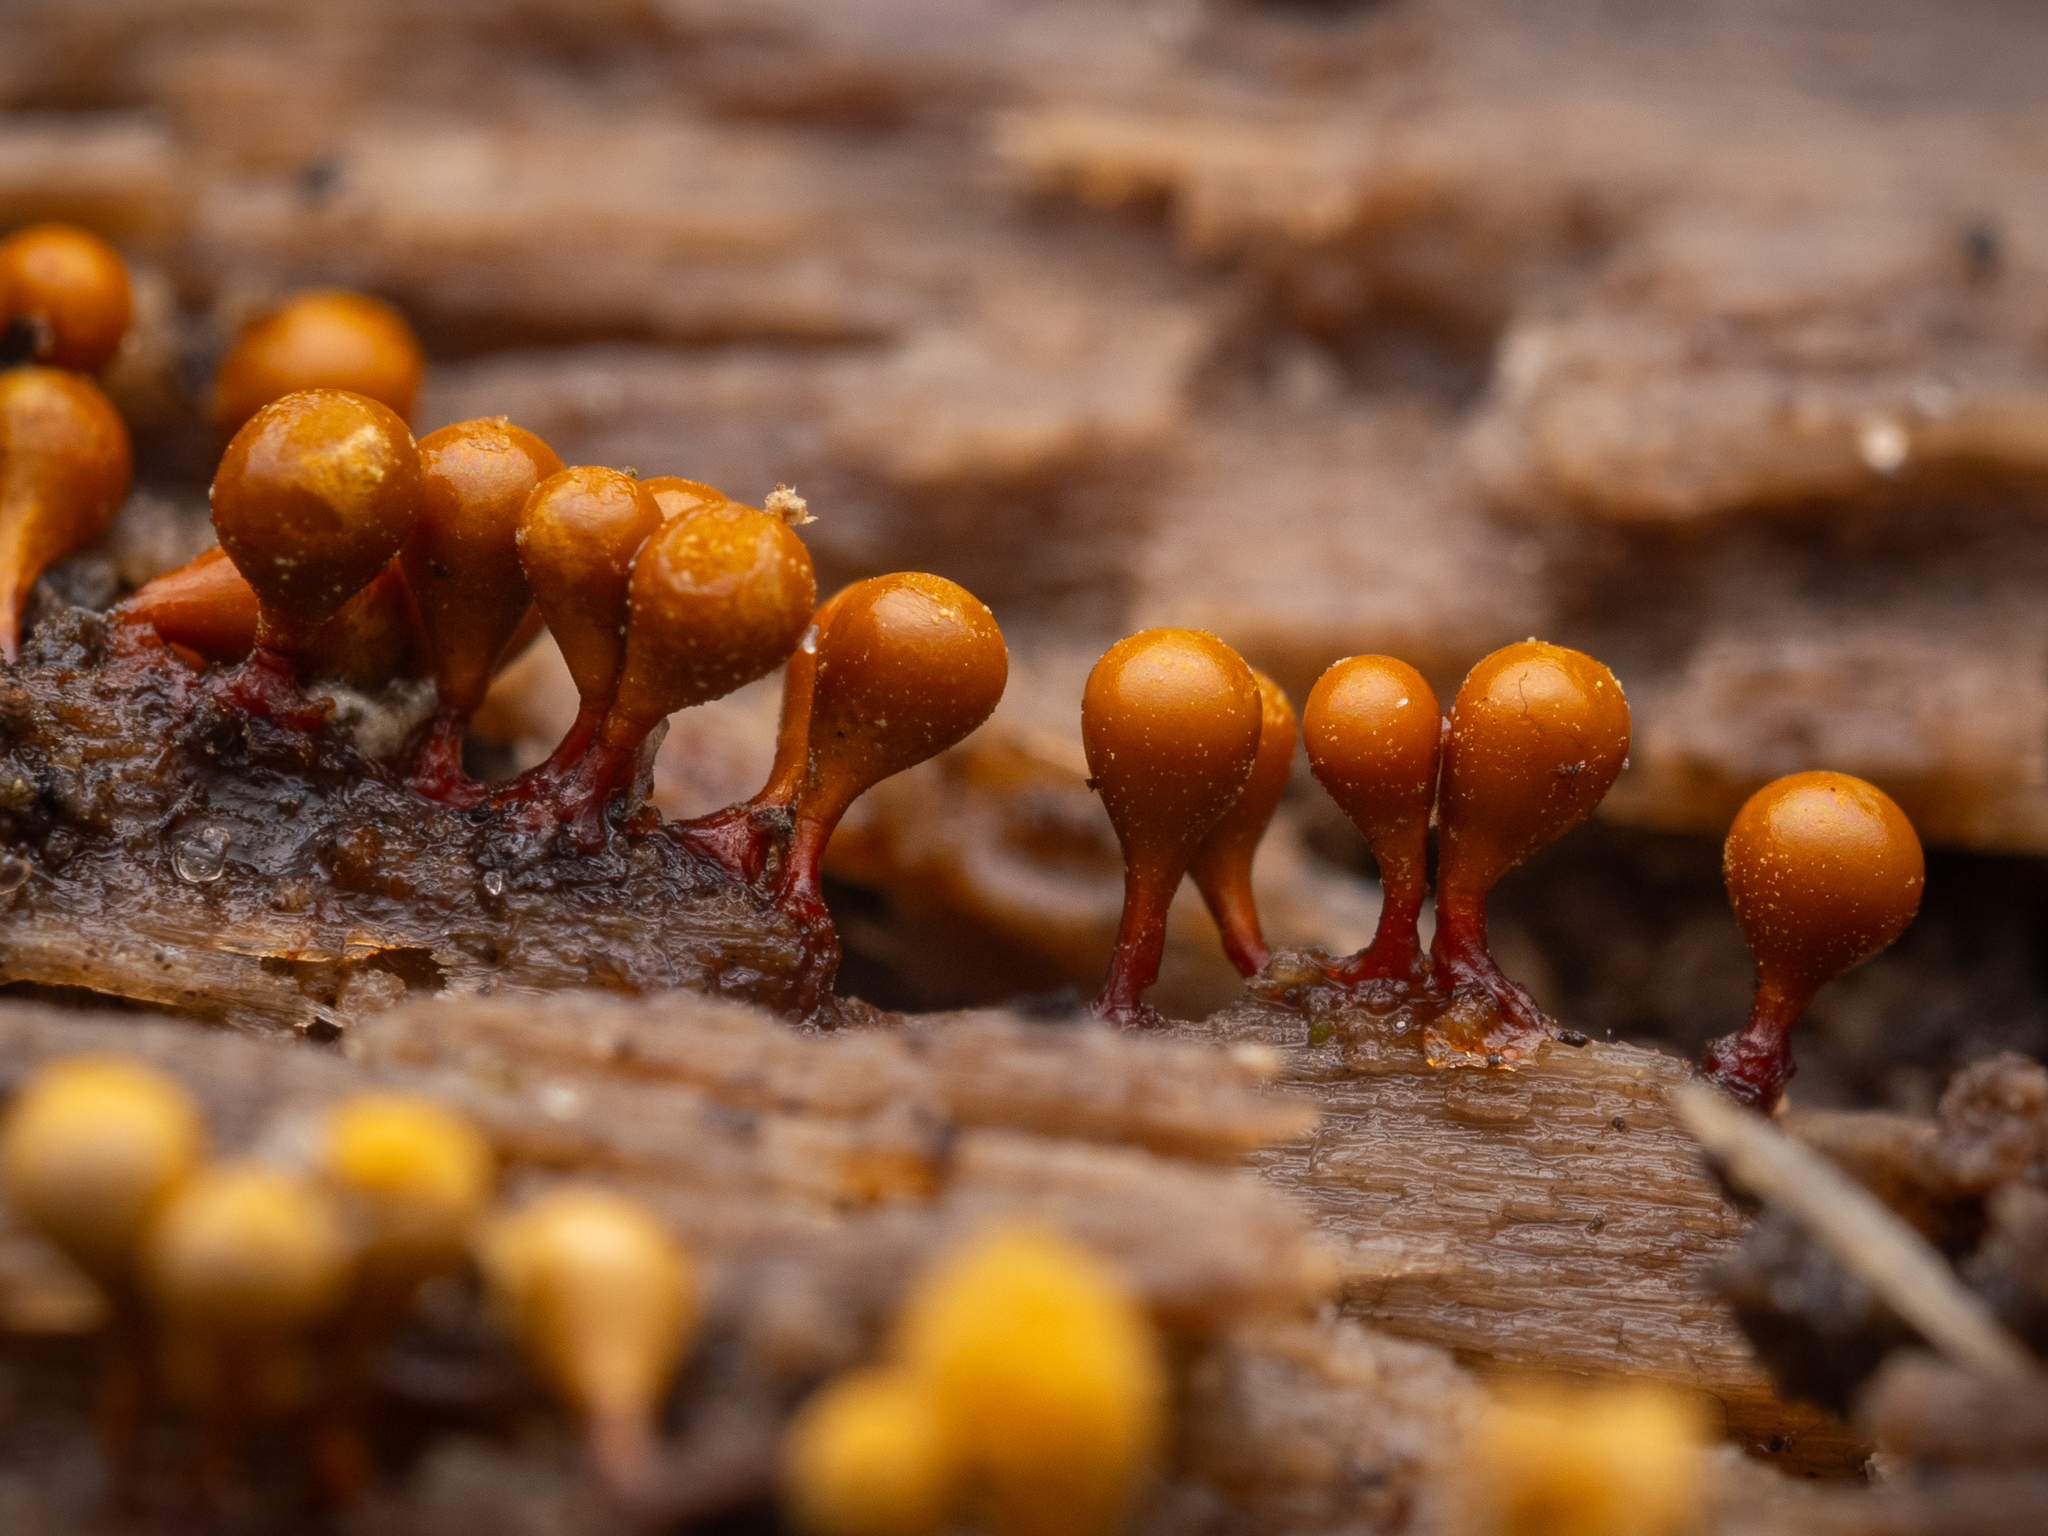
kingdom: Protozoa
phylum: Mycetozoa
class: Myxomycetes
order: Trichiales
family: Arcyriaceae
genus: Hemitrichia
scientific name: Hemitrichia clavata
